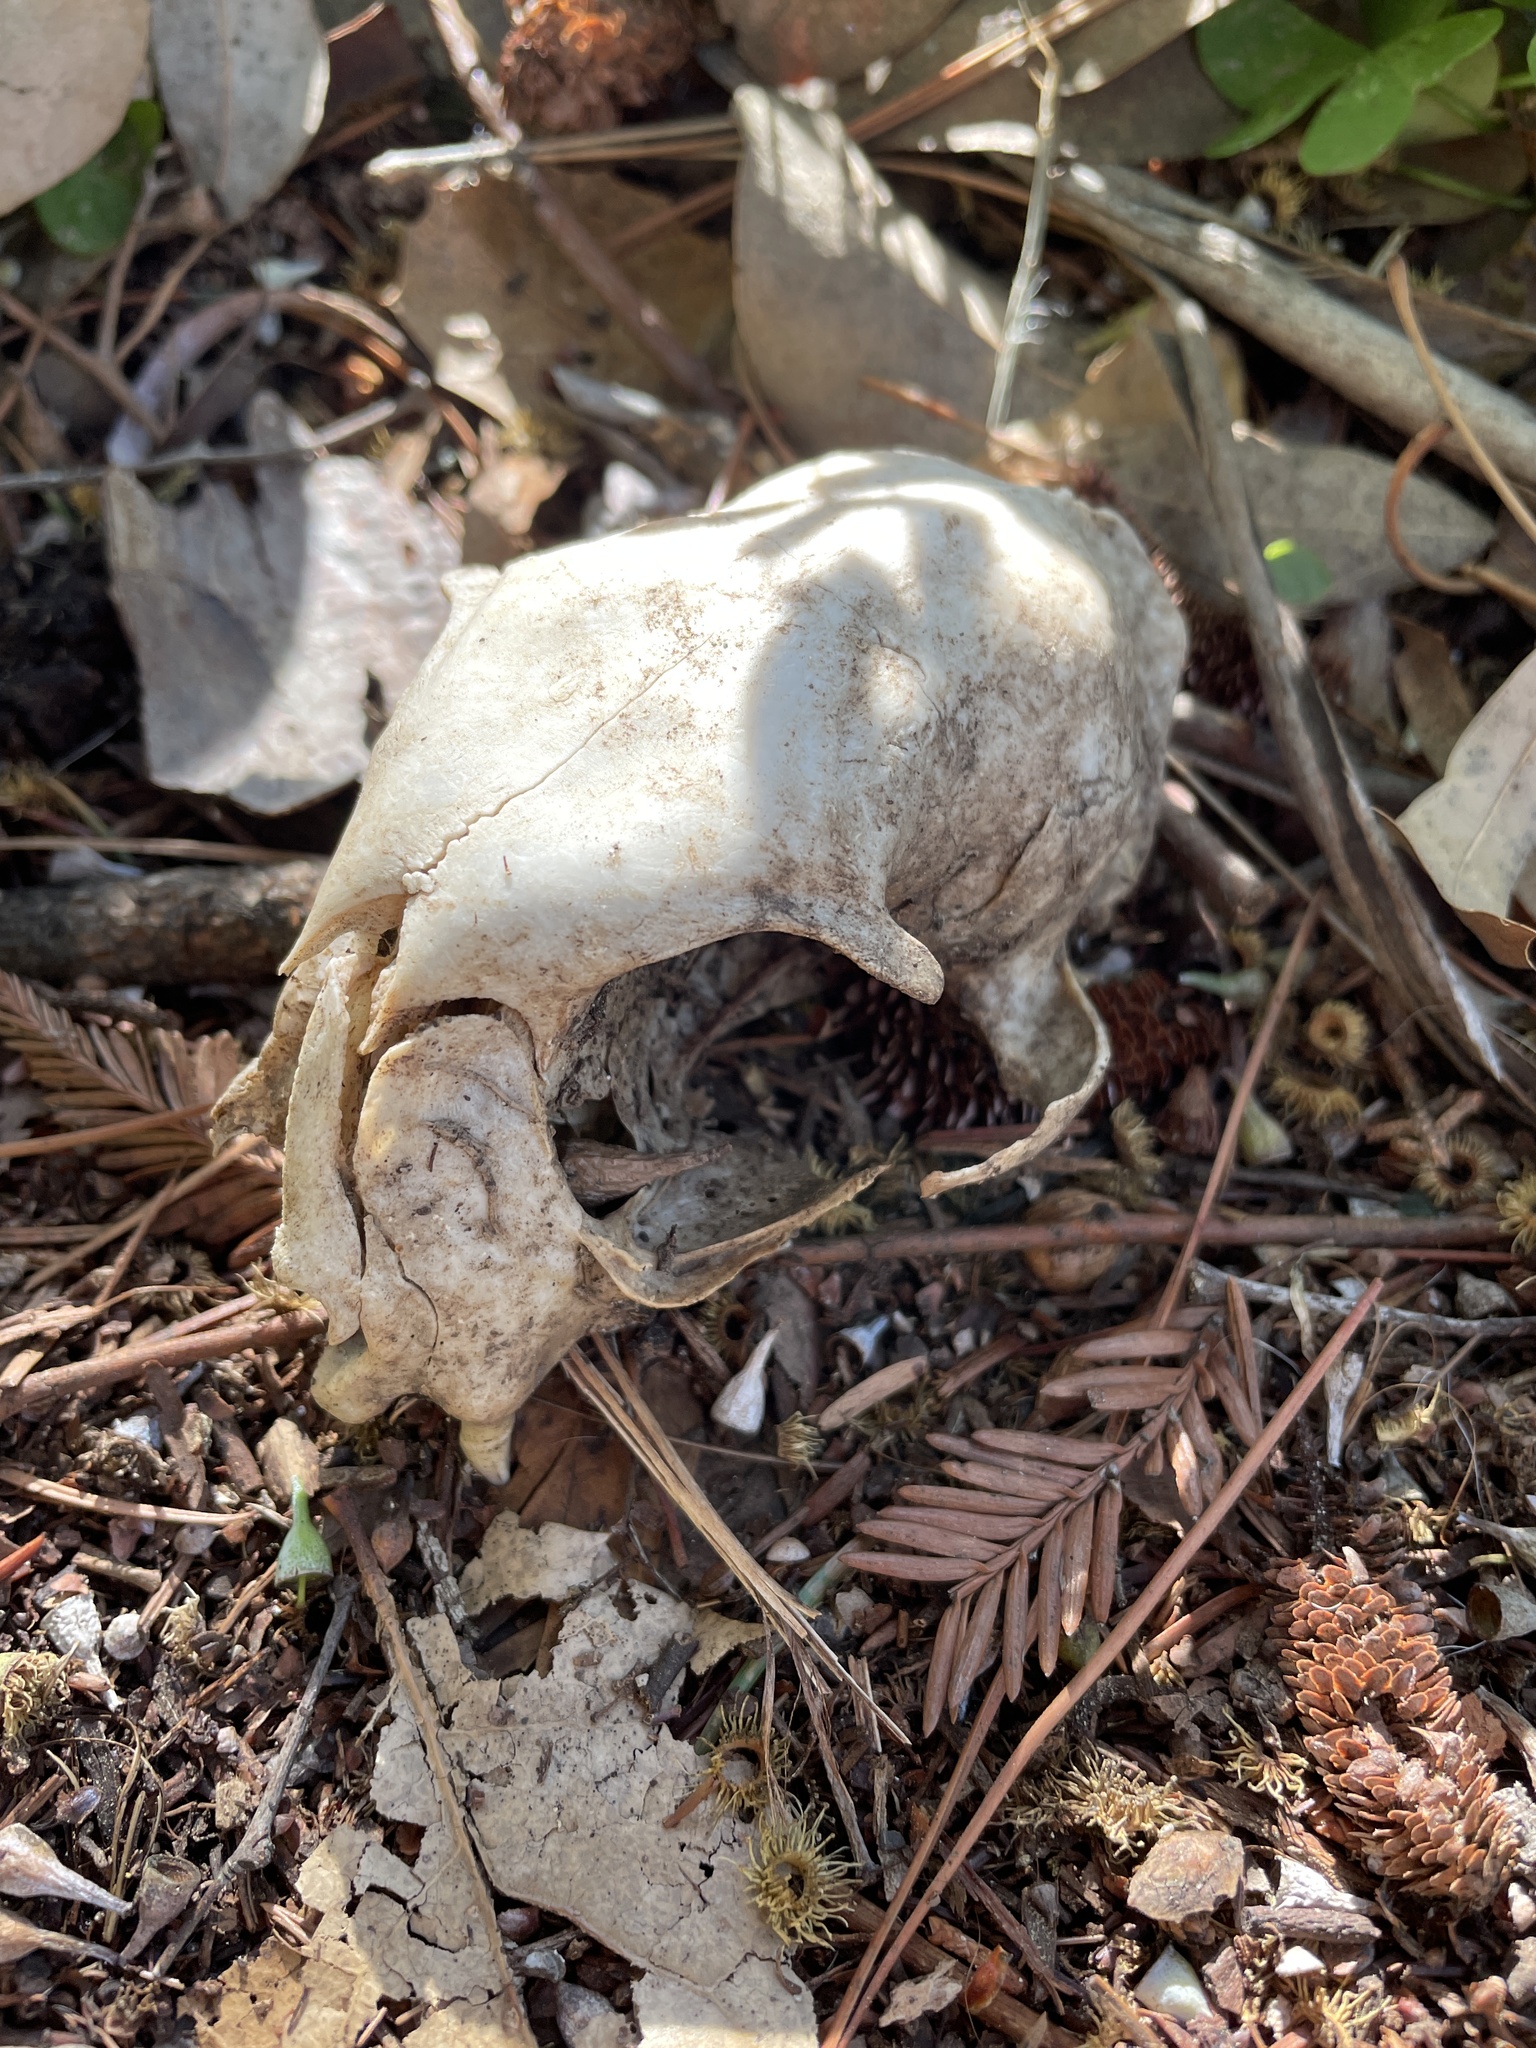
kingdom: Animalia
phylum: Chordata
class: Mammalia
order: Carnivora
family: Felidae
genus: Felis
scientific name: Felis catus
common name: Domestic cat
